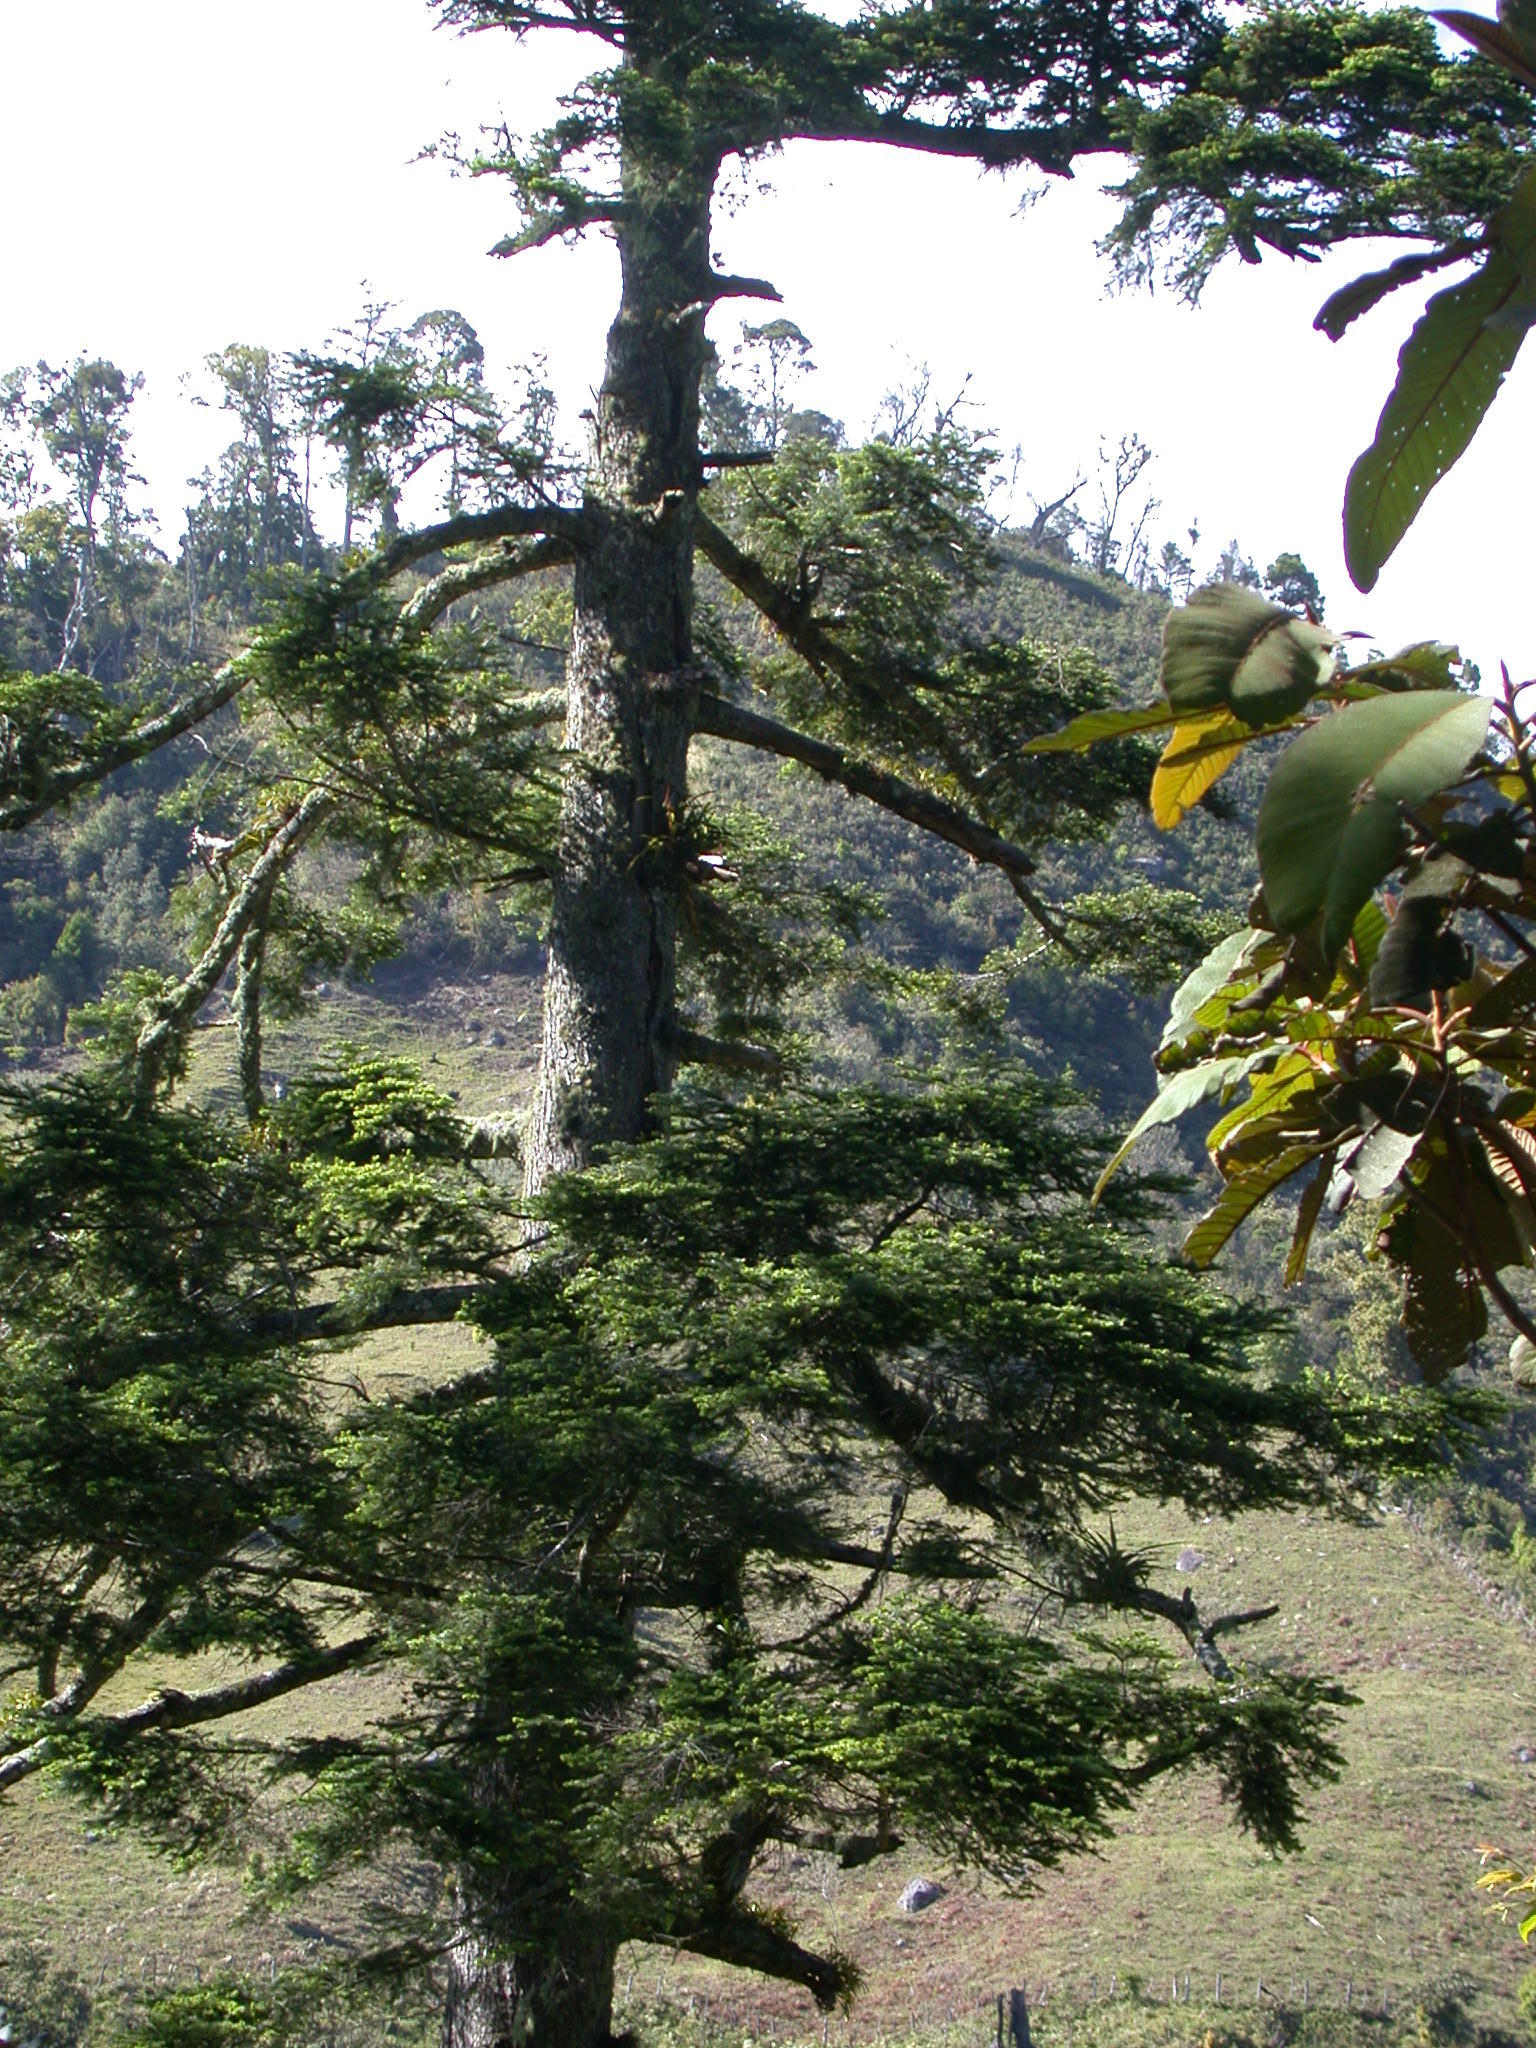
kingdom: Plantae
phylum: Tracheophyta
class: Pinopsida
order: Pinales
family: Pinaceae
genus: Abies
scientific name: Abies guatemalensis
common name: Guatemalan fir
